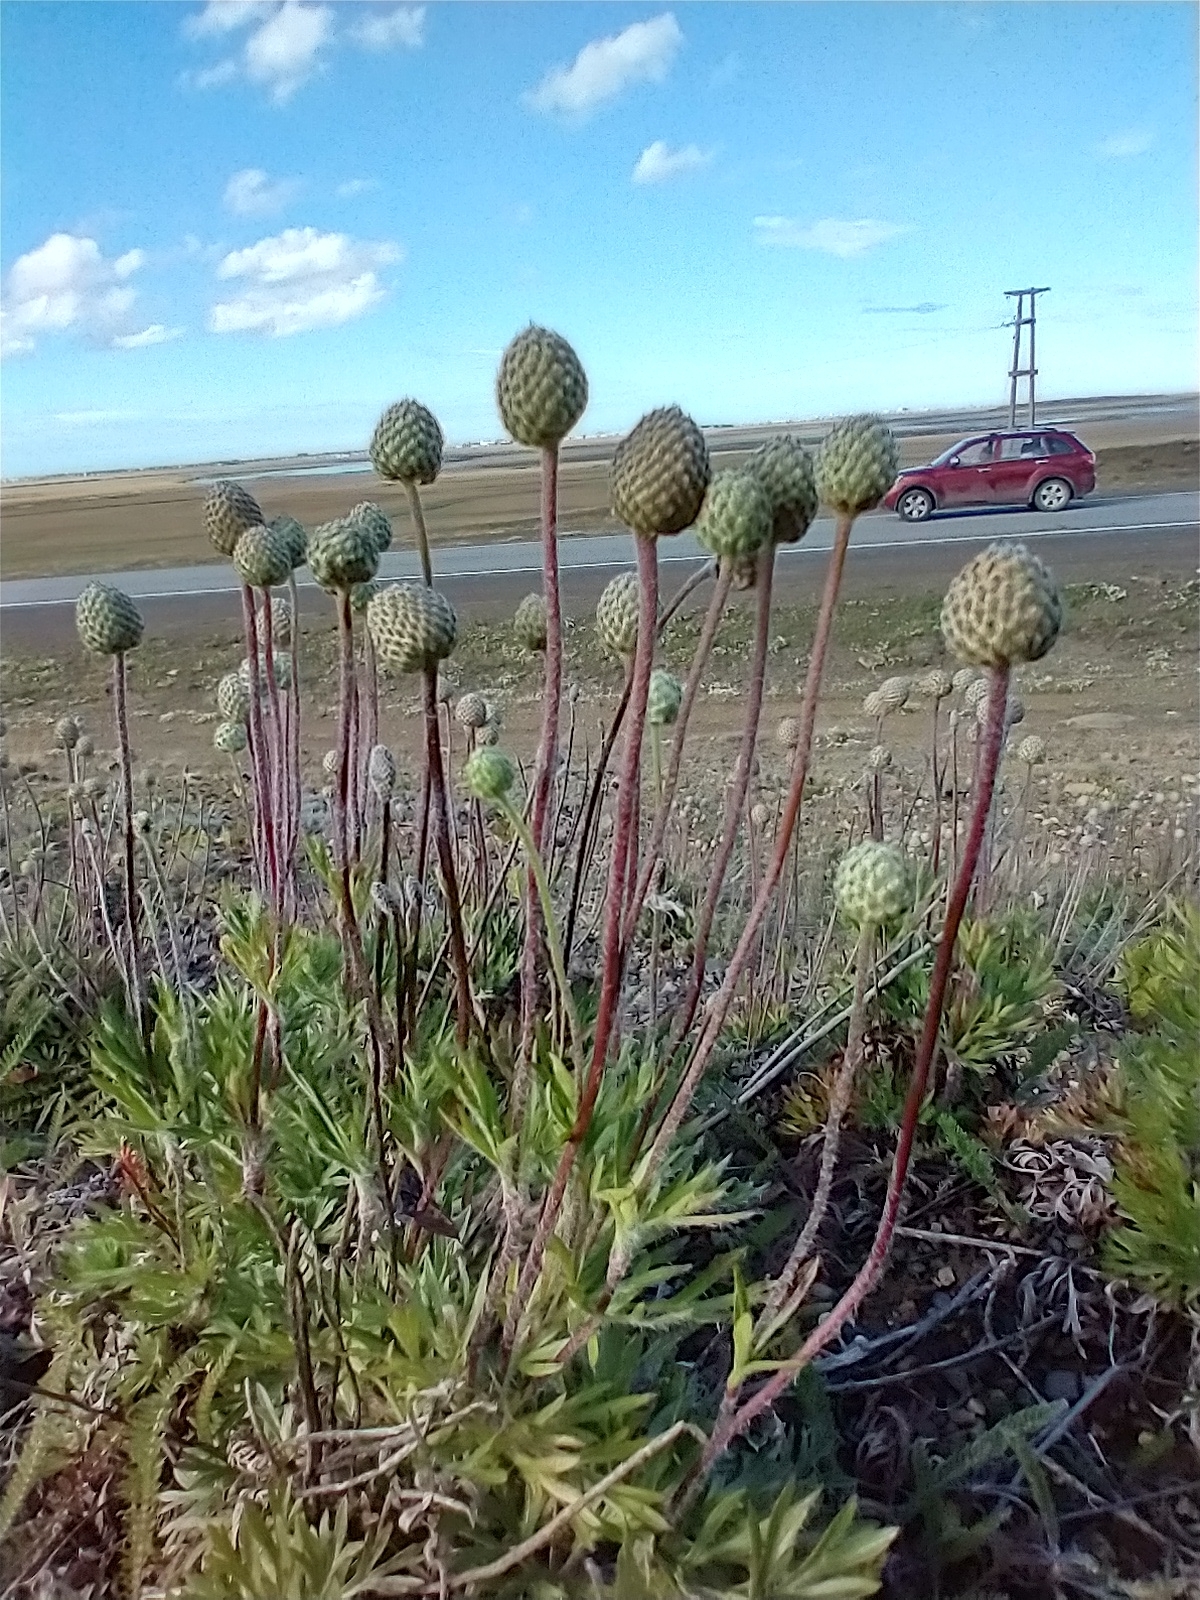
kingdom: Plantae
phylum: Tracheophyta
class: Magnoliopsida
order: Ranunculales
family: Ranunculaceae
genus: Anemone
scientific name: Anemone multifida
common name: Bird's-foot anemone
